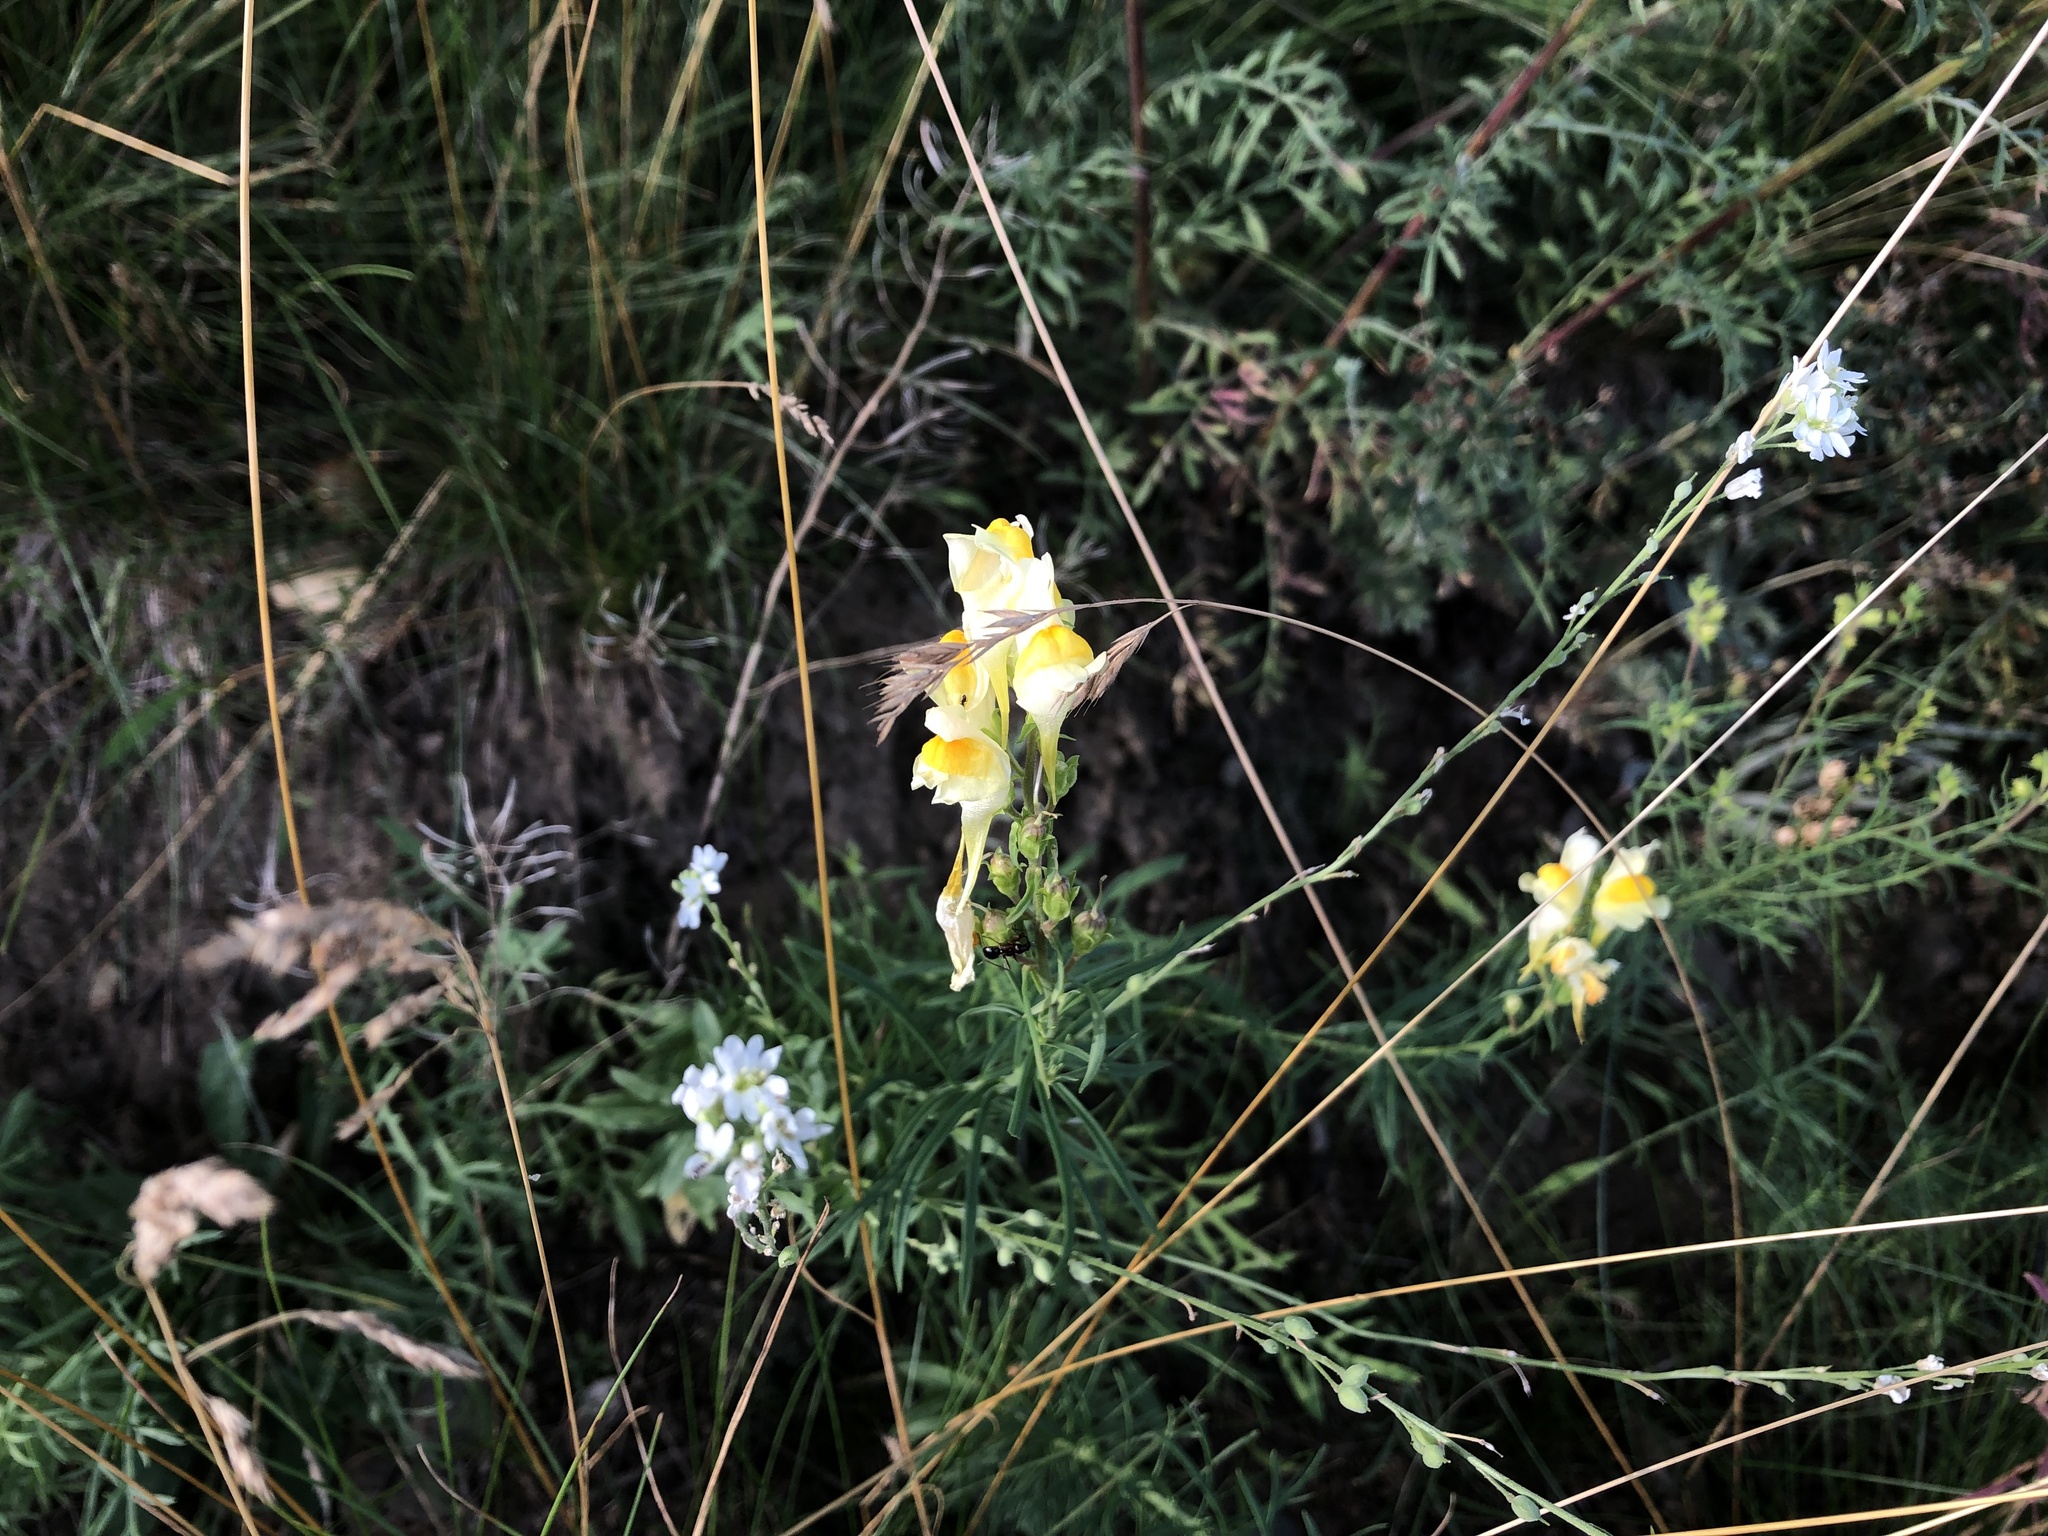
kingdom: Plantae
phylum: Tracheophyta
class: Magnoliopsida
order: Lamiales
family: Plantaginaceae
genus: Linaria
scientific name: Linaria vulgaris
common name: Butter and eggs
